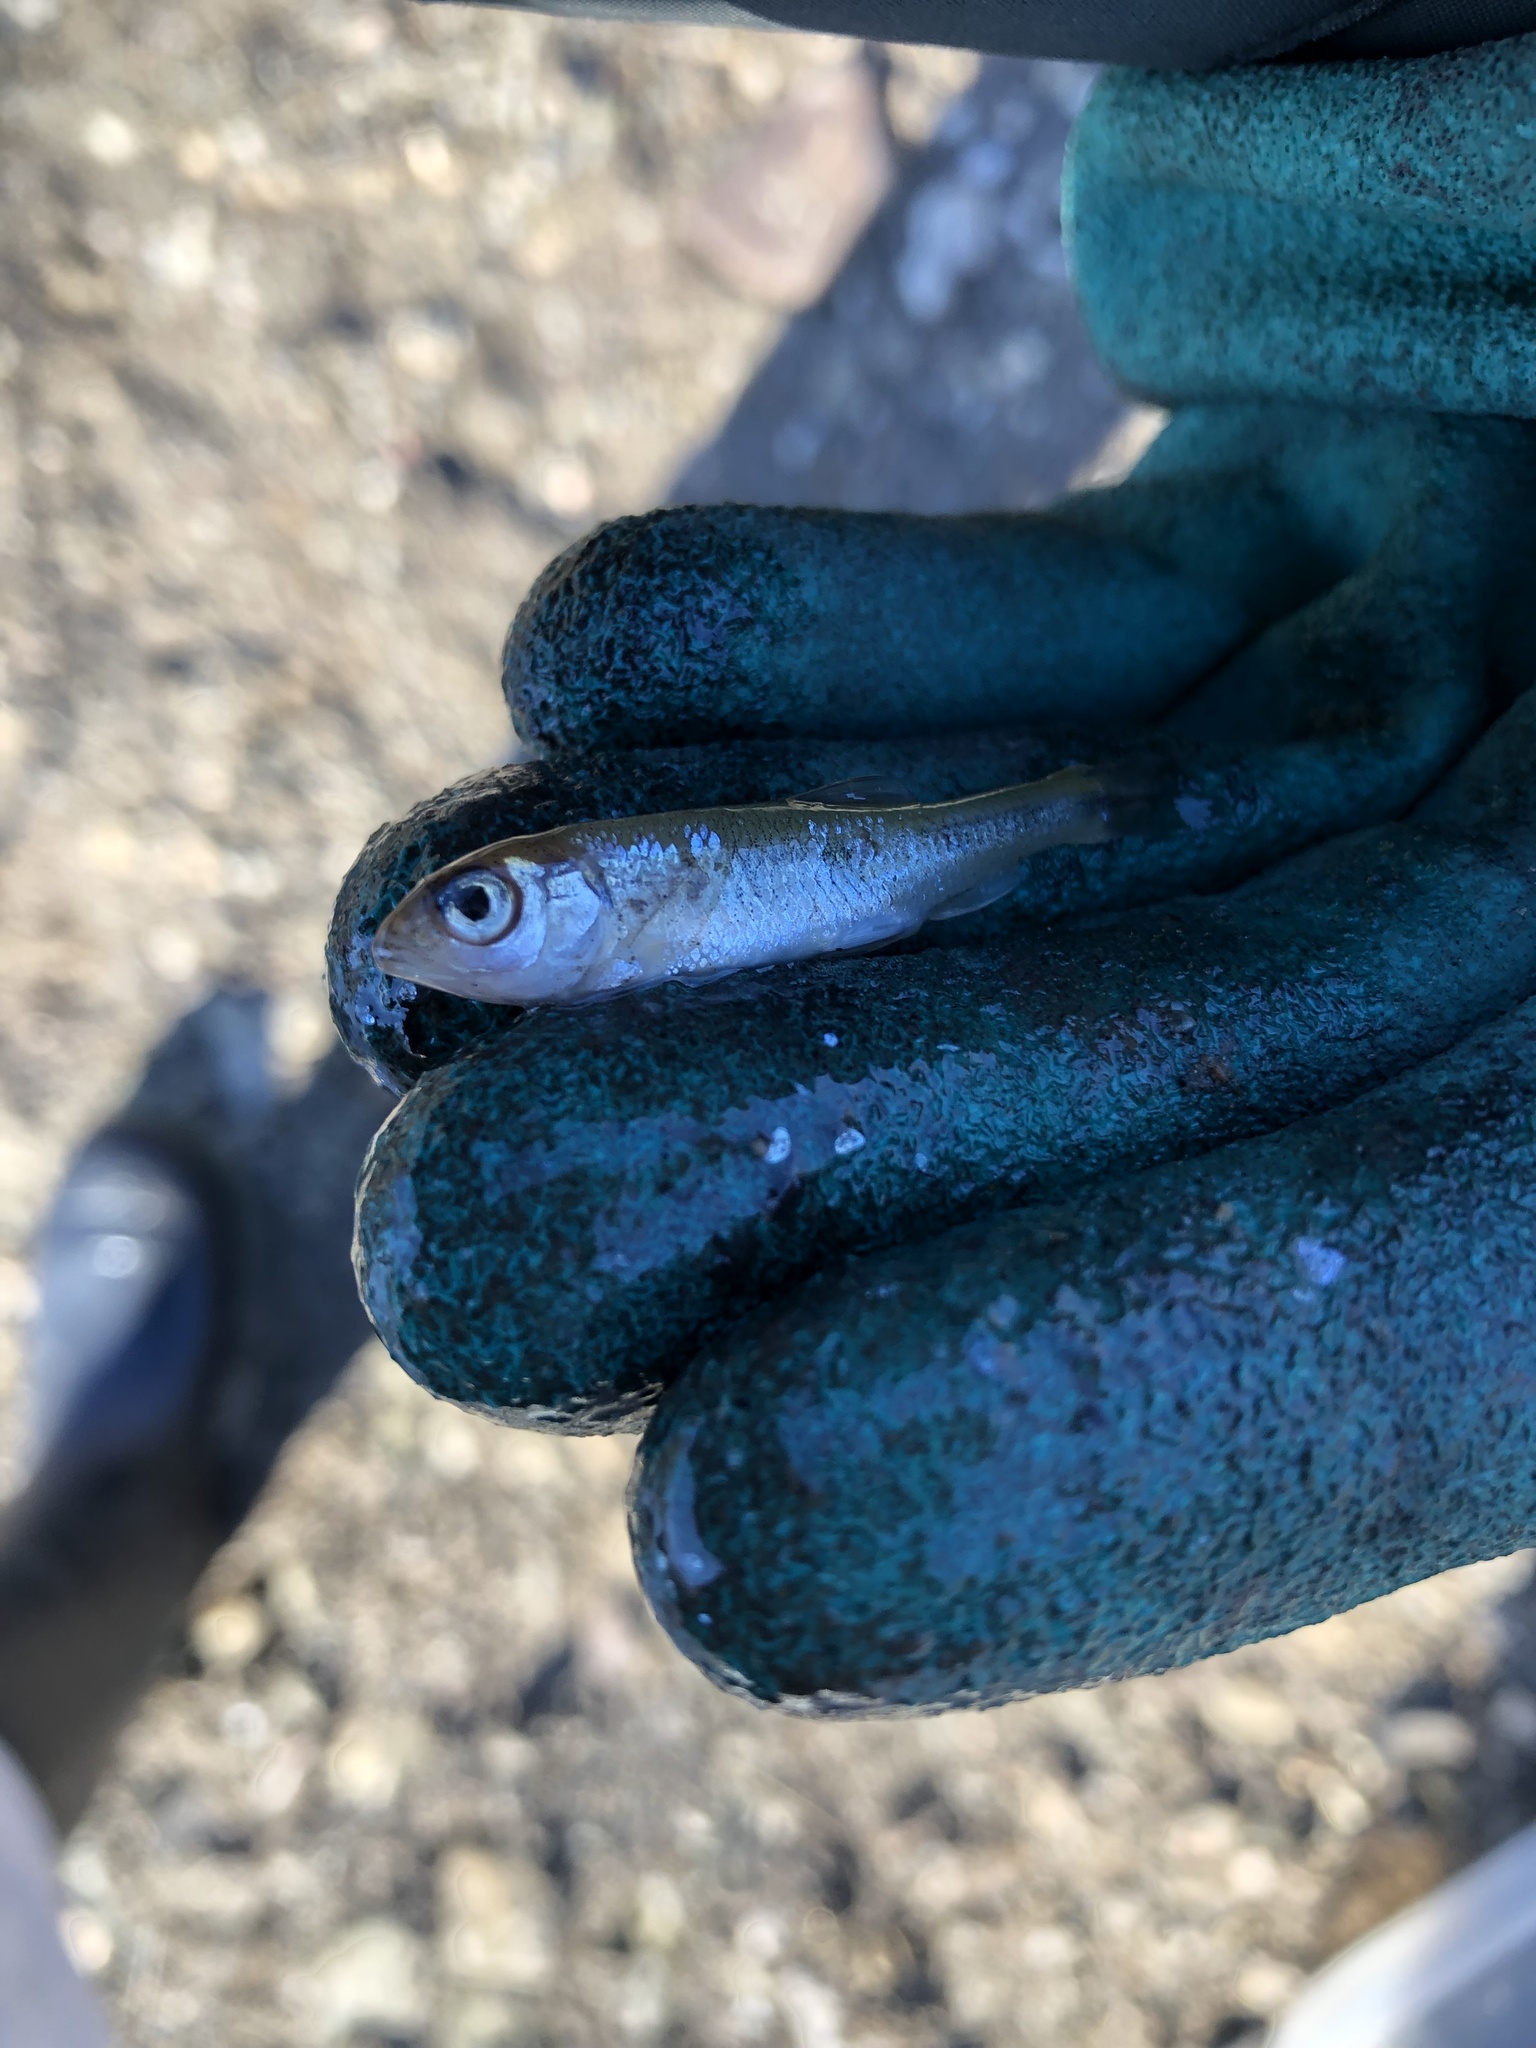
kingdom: Animalia
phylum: Chordata
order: Cypriniformes
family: Cyprinidae
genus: Luxilus
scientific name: Luxilus cornutus
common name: Common shiner
